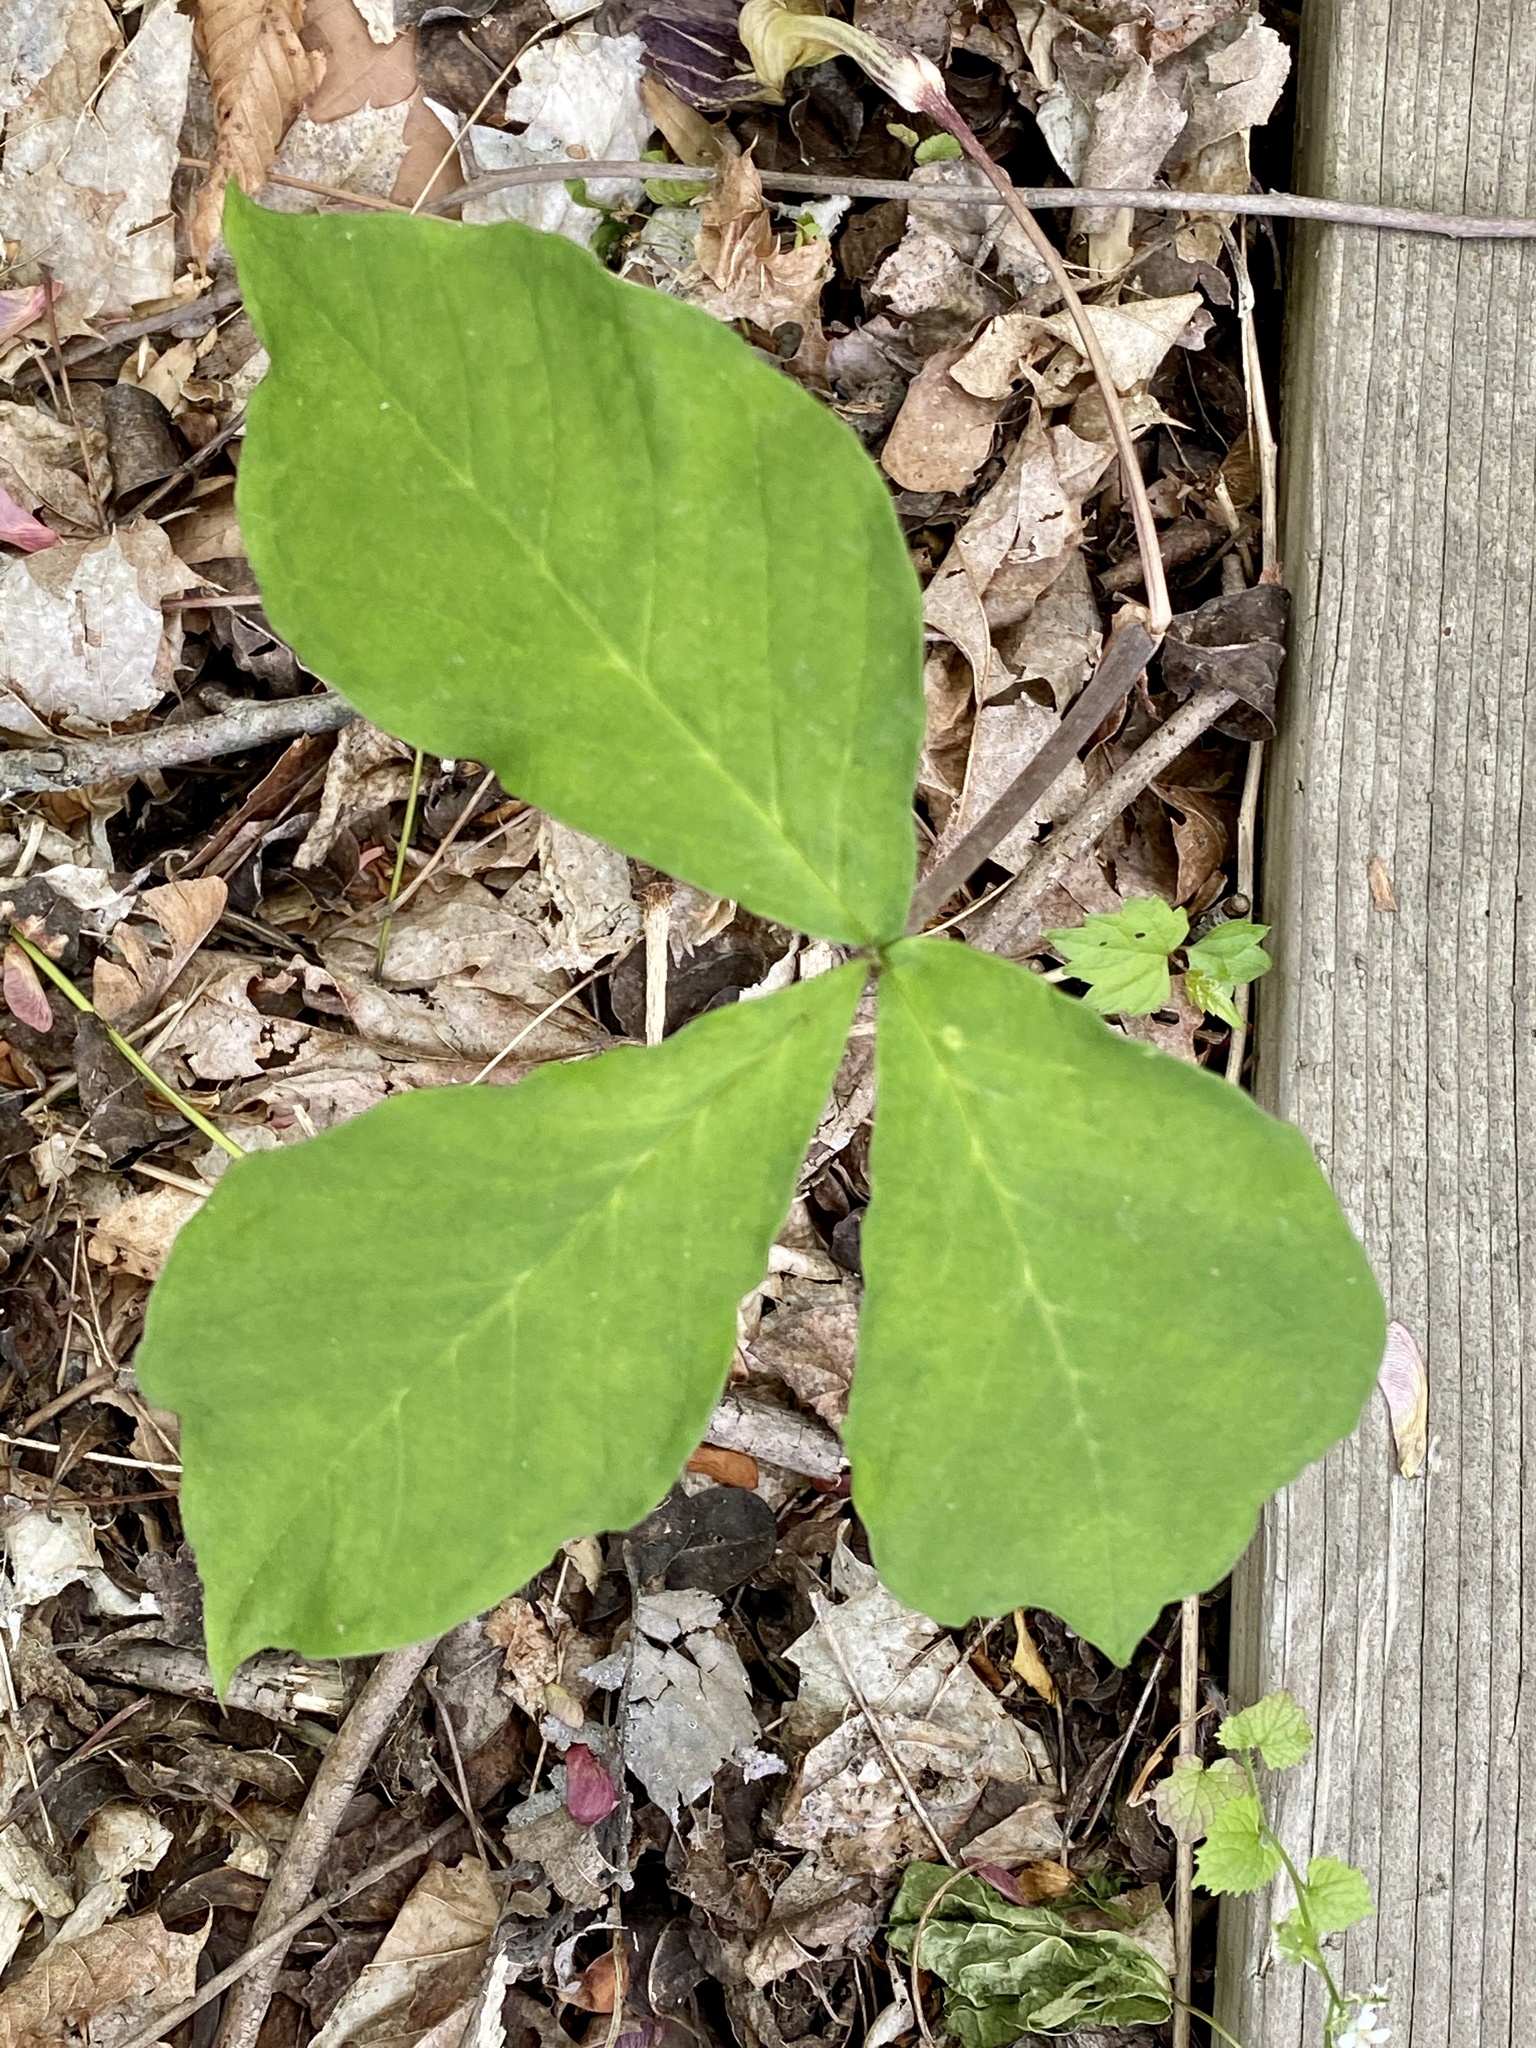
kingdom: Plantae
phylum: Tracheophyta
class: Liliopsida
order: Alismatales
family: Araceae
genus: Arisaema
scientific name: Arisaema triphyllum
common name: Jack-in-the-pulpit
